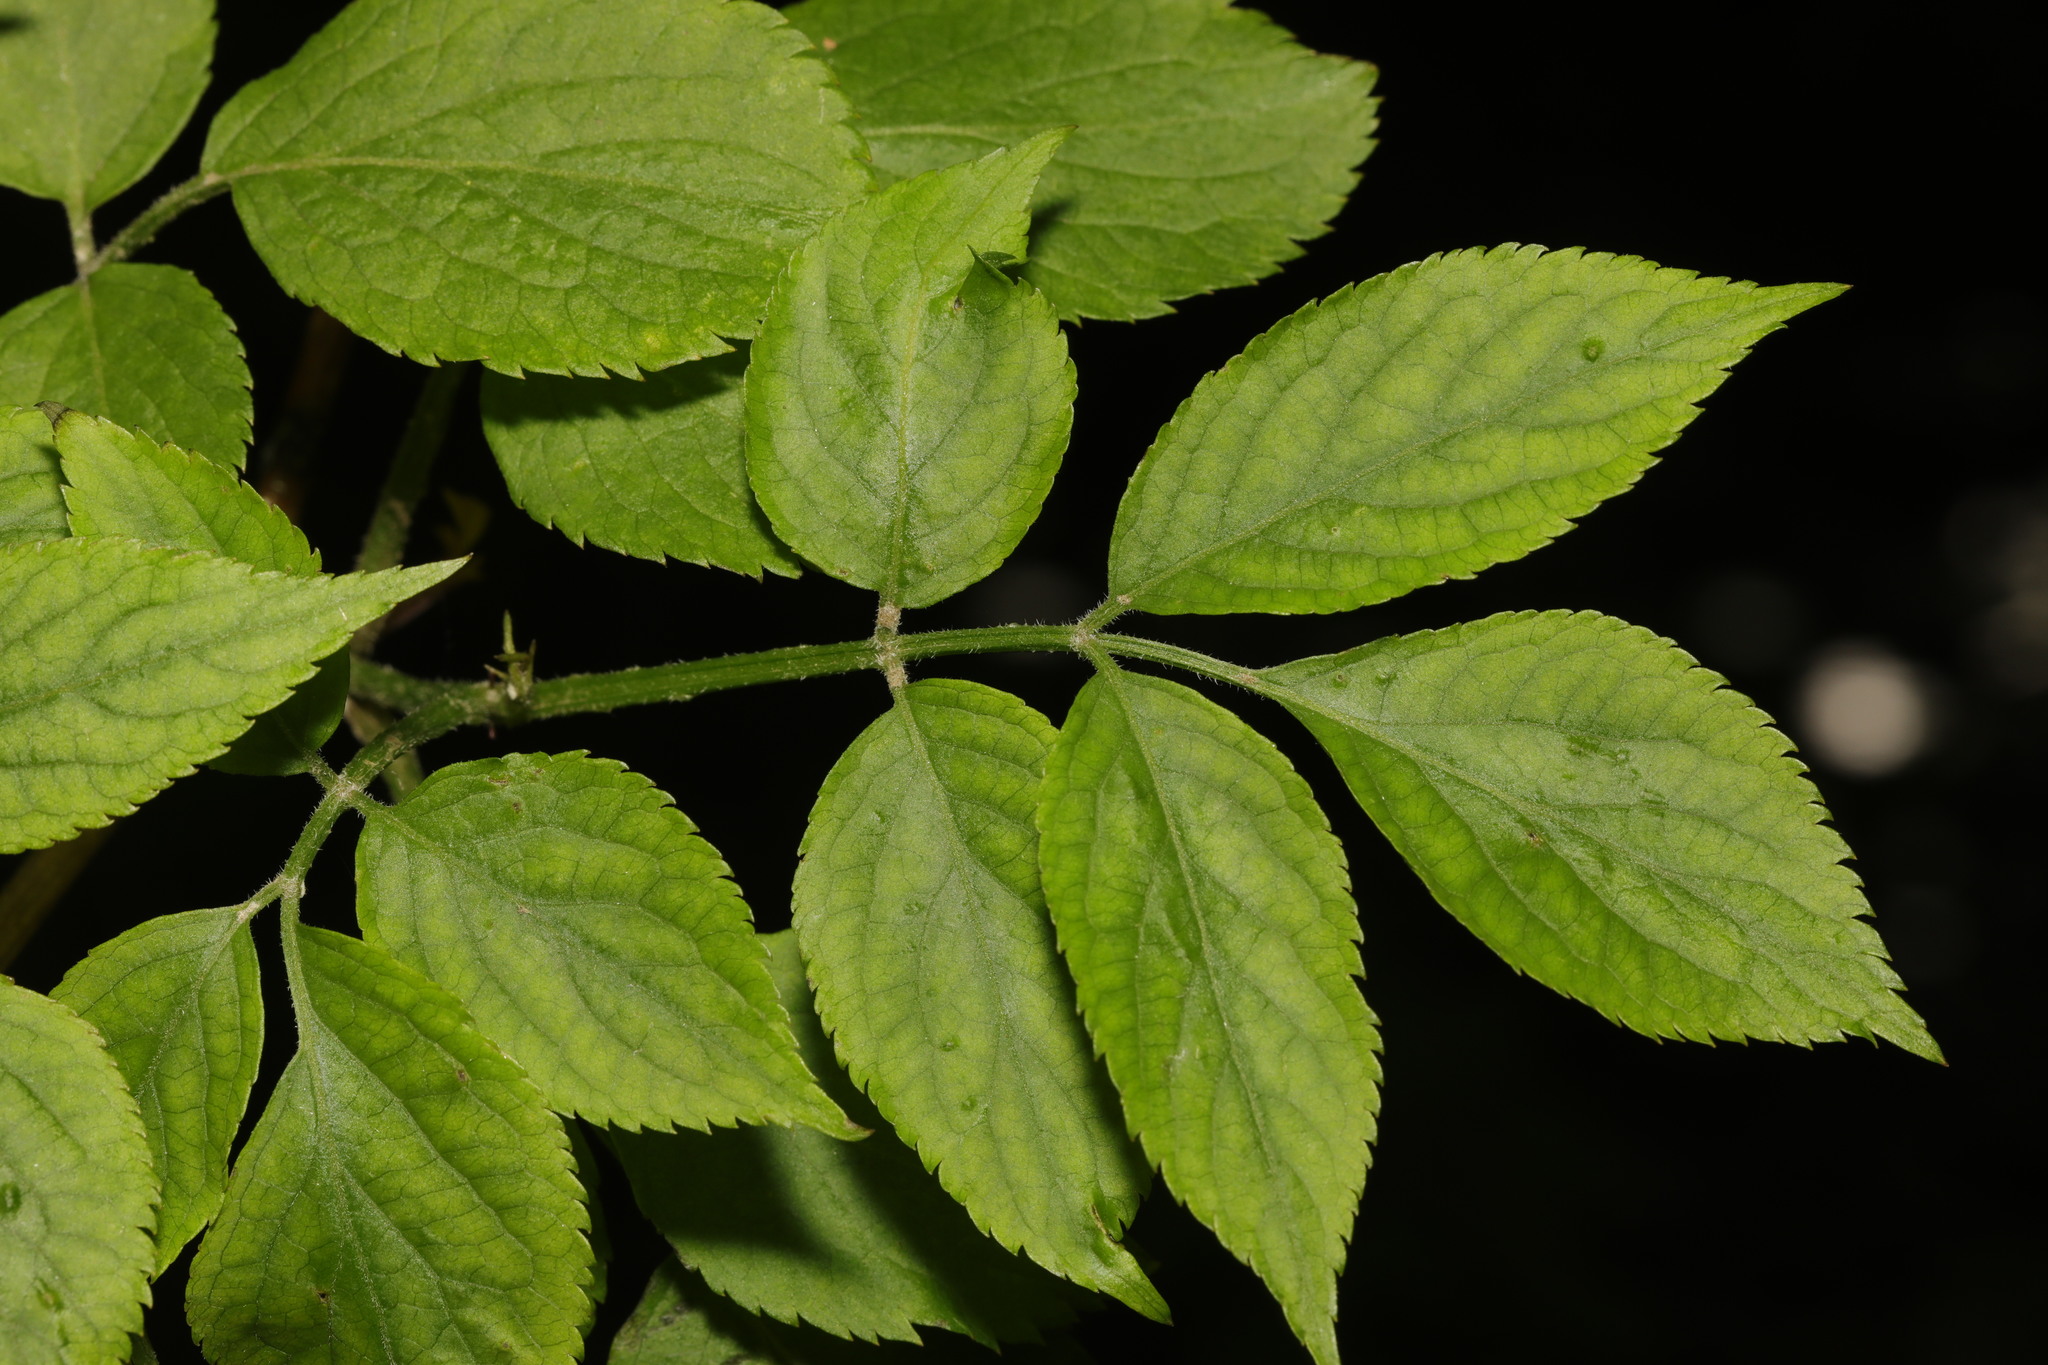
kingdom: Plantae
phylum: Tracheophyta
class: Magnoliopsida
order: Dipsacales
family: Viburnaceae
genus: Sambucus
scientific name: Sambucus nigra
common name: Elder
